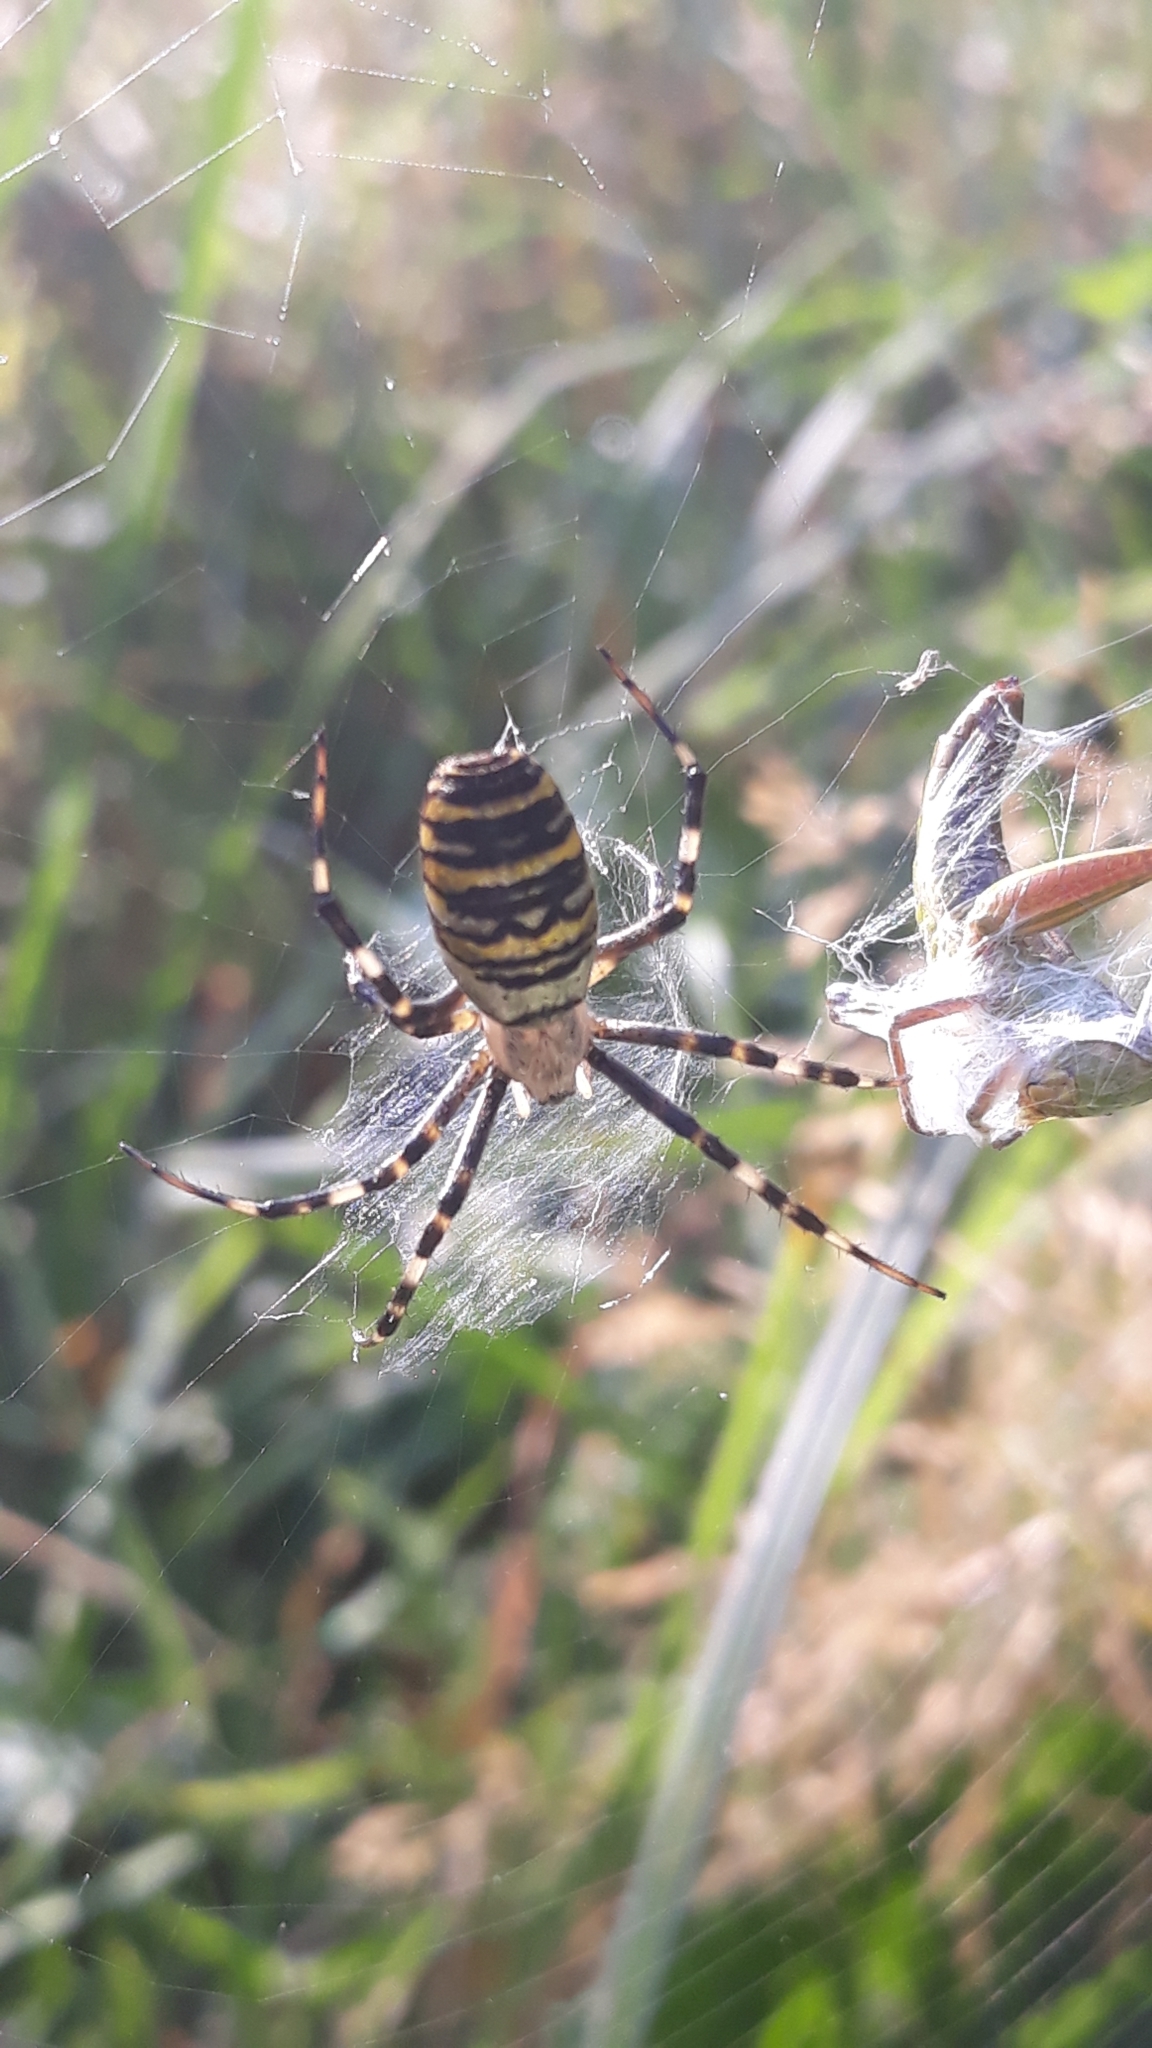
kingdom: Animalia
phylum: Arthropoda
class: Arachnida
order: Araneae
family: Araneidae
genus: Argiope
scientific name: Argiope bruennichi
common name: Wasp spider
